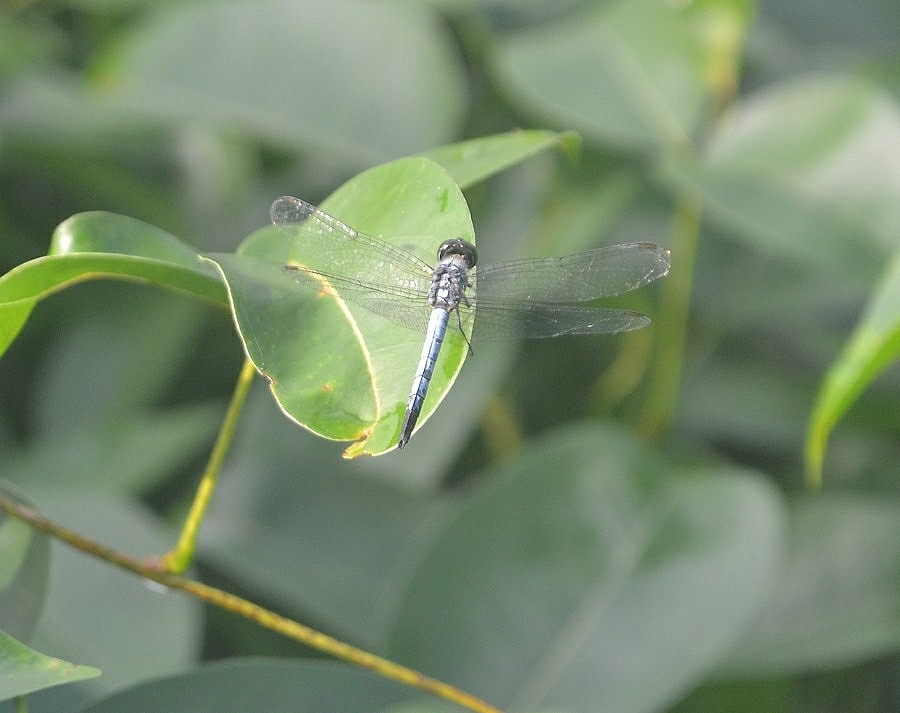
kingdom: Animalia
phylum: Arthropoda
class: Insecta
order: Odonata
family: Libellulidae
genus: Brachydiplax
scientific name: Brachydiplax sobrina
